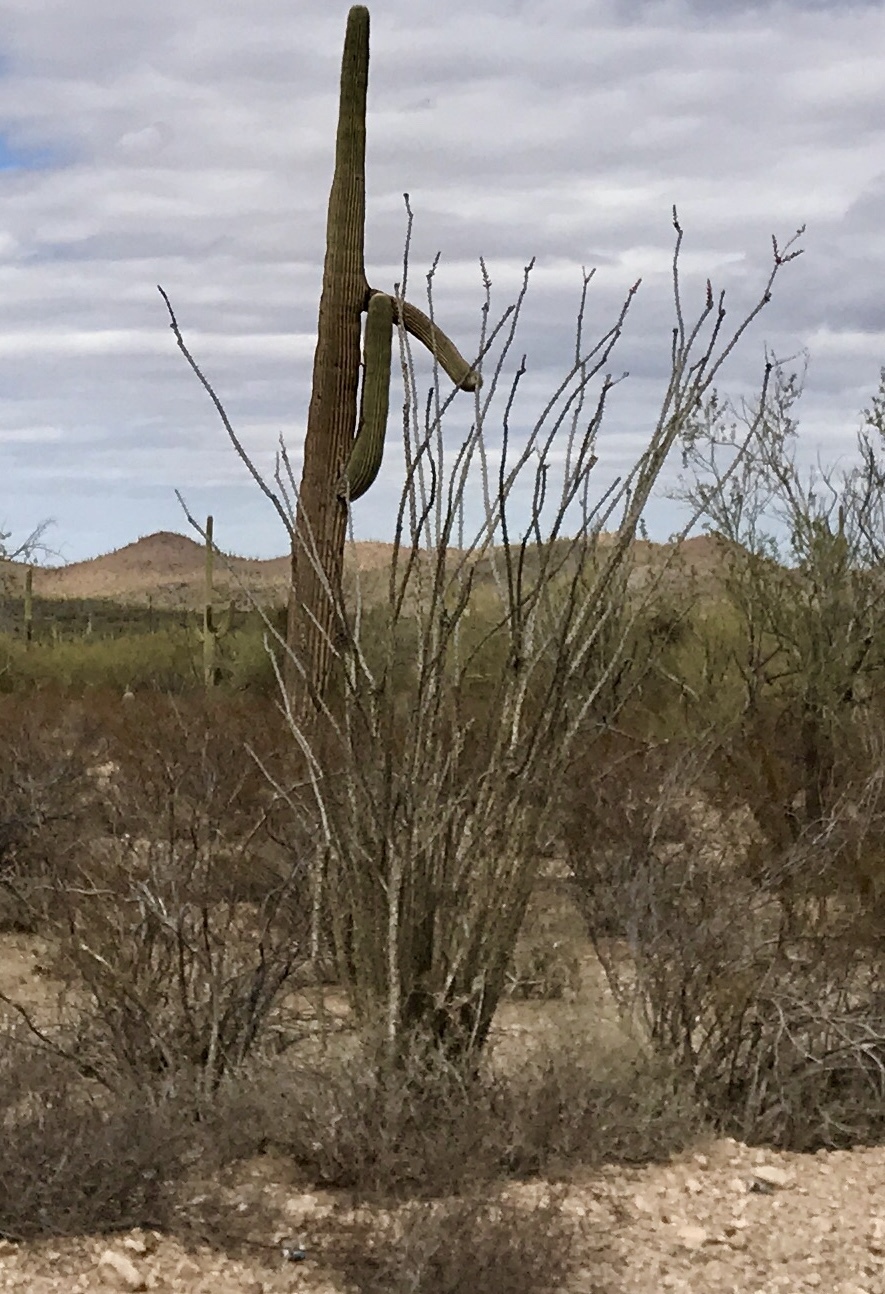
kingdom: Plantae
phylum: Tracheophyta
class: Magnoliopsida
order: Ericales
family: Fouquieriaceae
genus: Fouquieria
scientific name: Fouquieria splendens
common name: Vine-cactus
